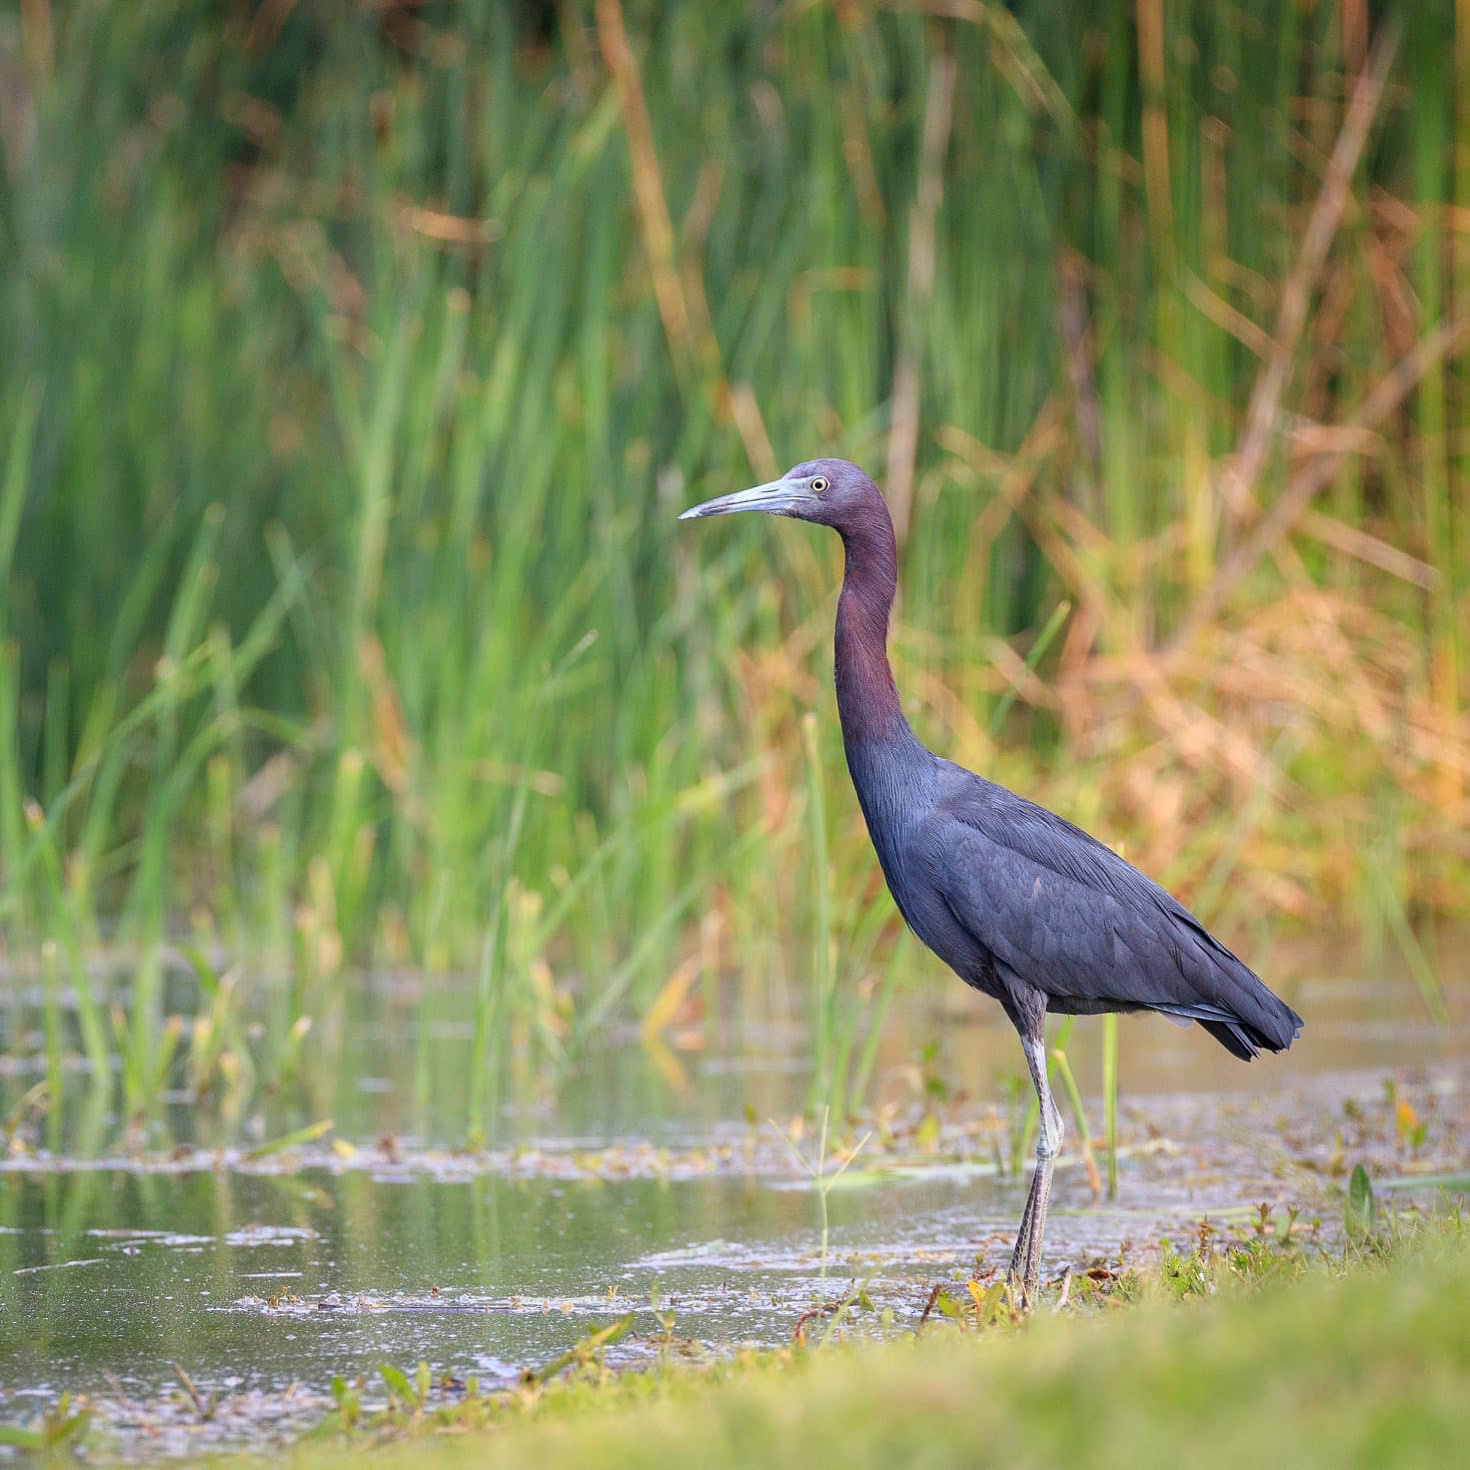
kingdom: Animalia
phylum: Chordata
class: Aves
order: Pelecaniformes
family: Ardeidae
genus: Egretta
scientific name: Egretta caerulea
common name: Little blue heron
